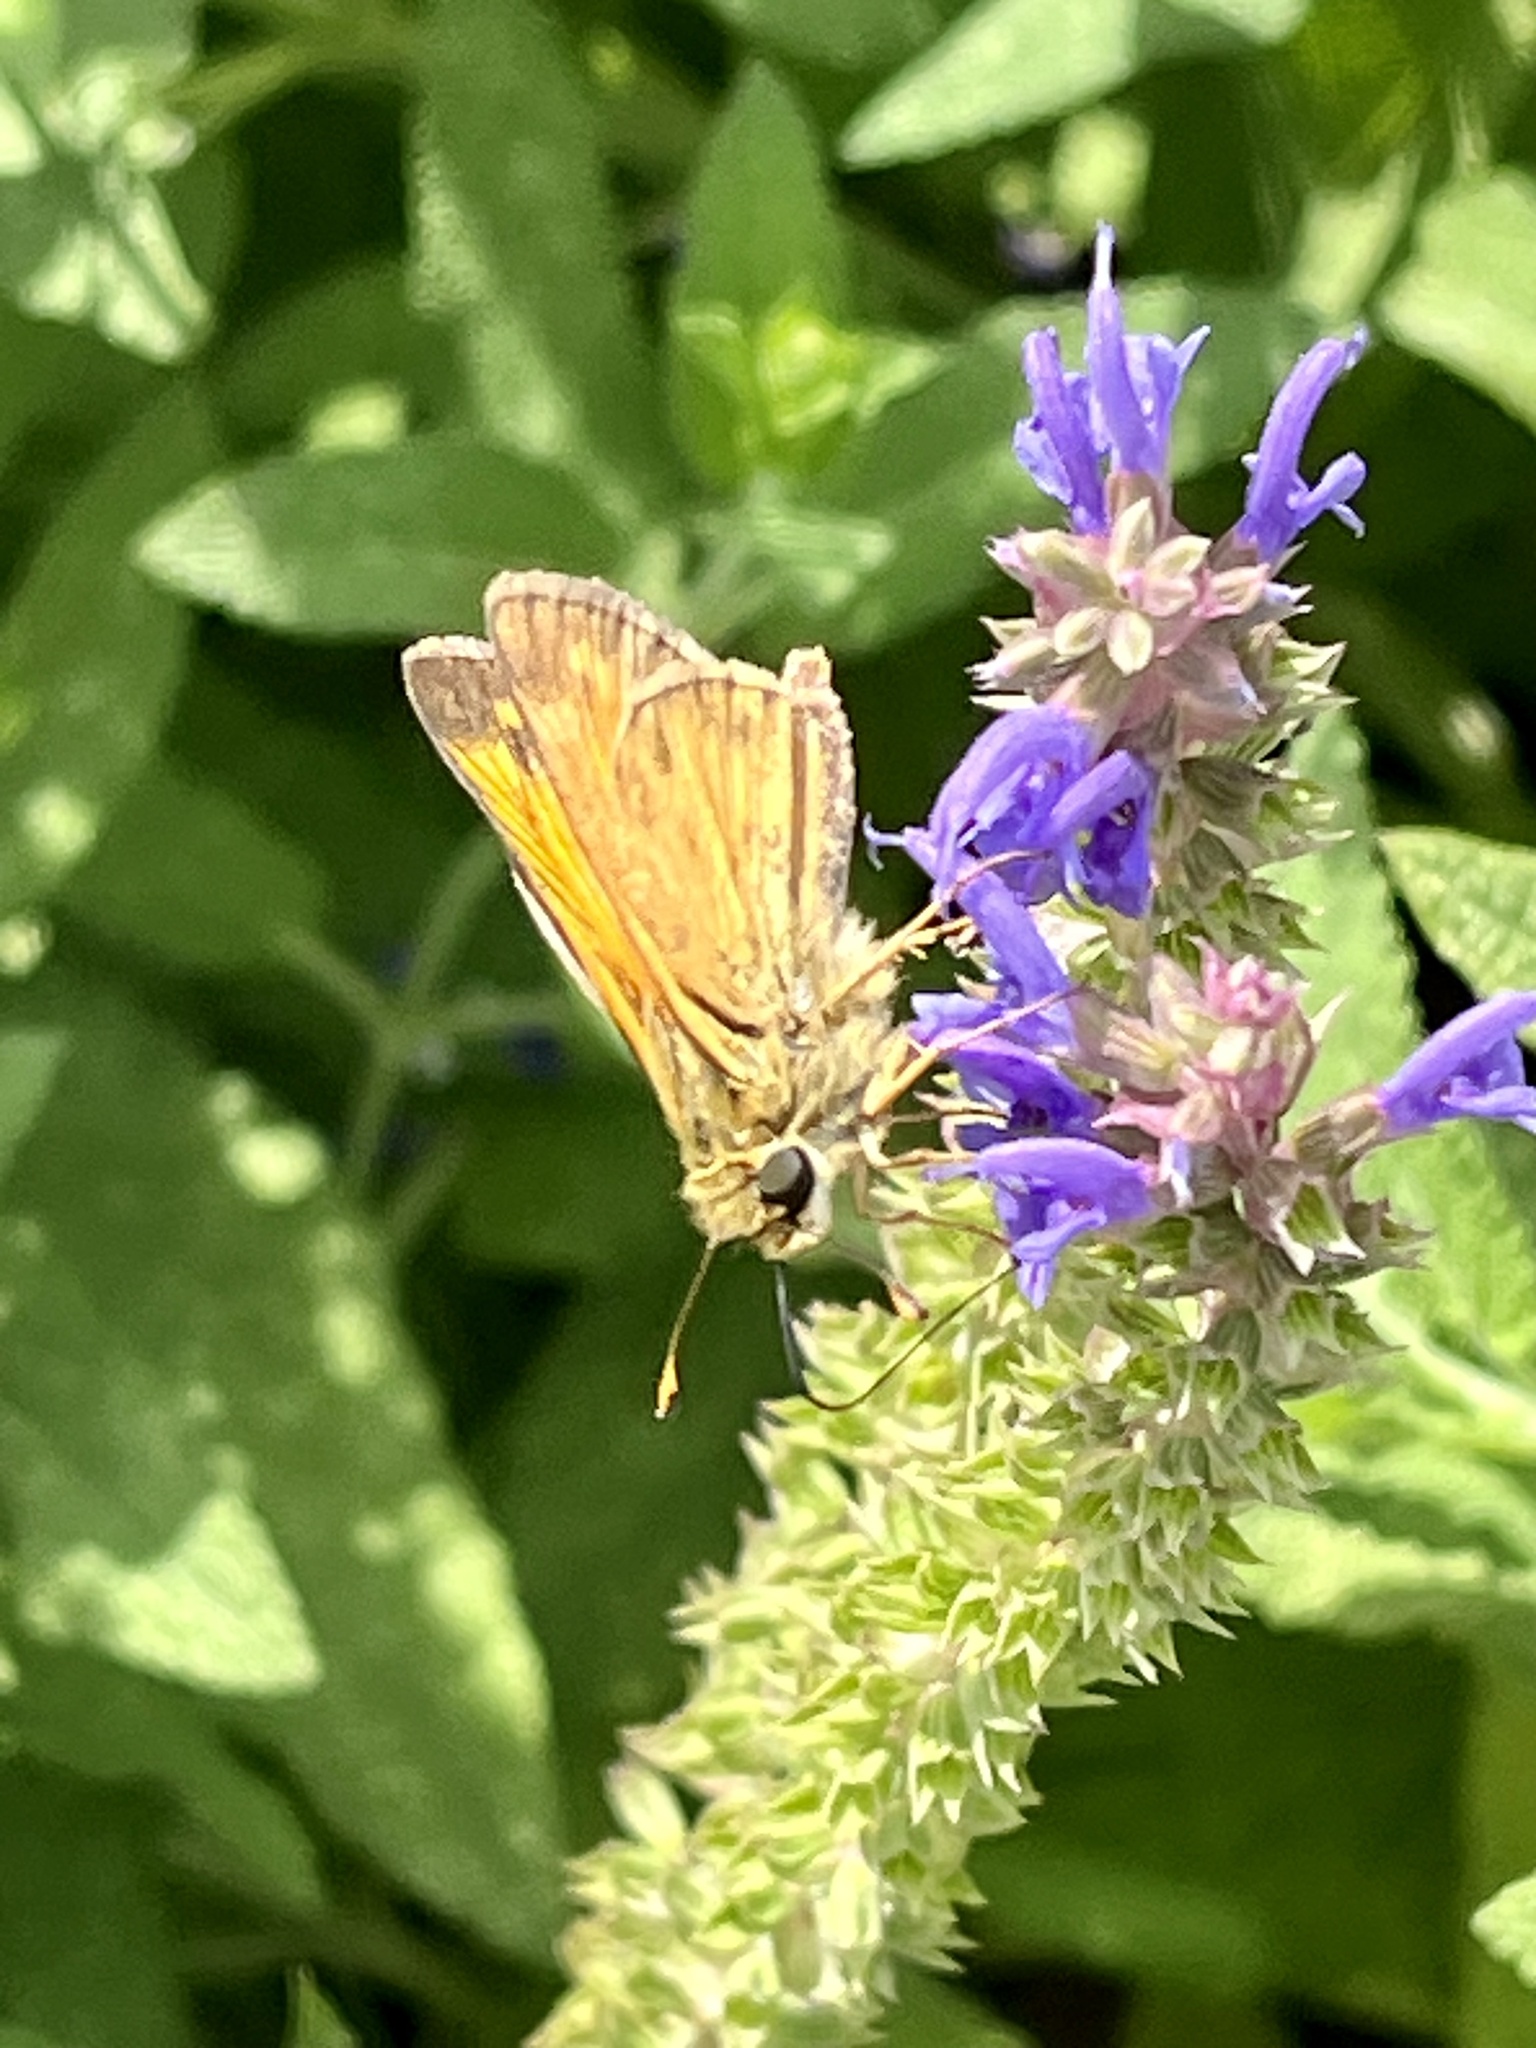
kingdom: Animalia
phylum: Arthropoda
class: Insecta
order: Lepidoptera
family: Hesperiidae
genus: Atalopedes
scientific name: Atalopedes
